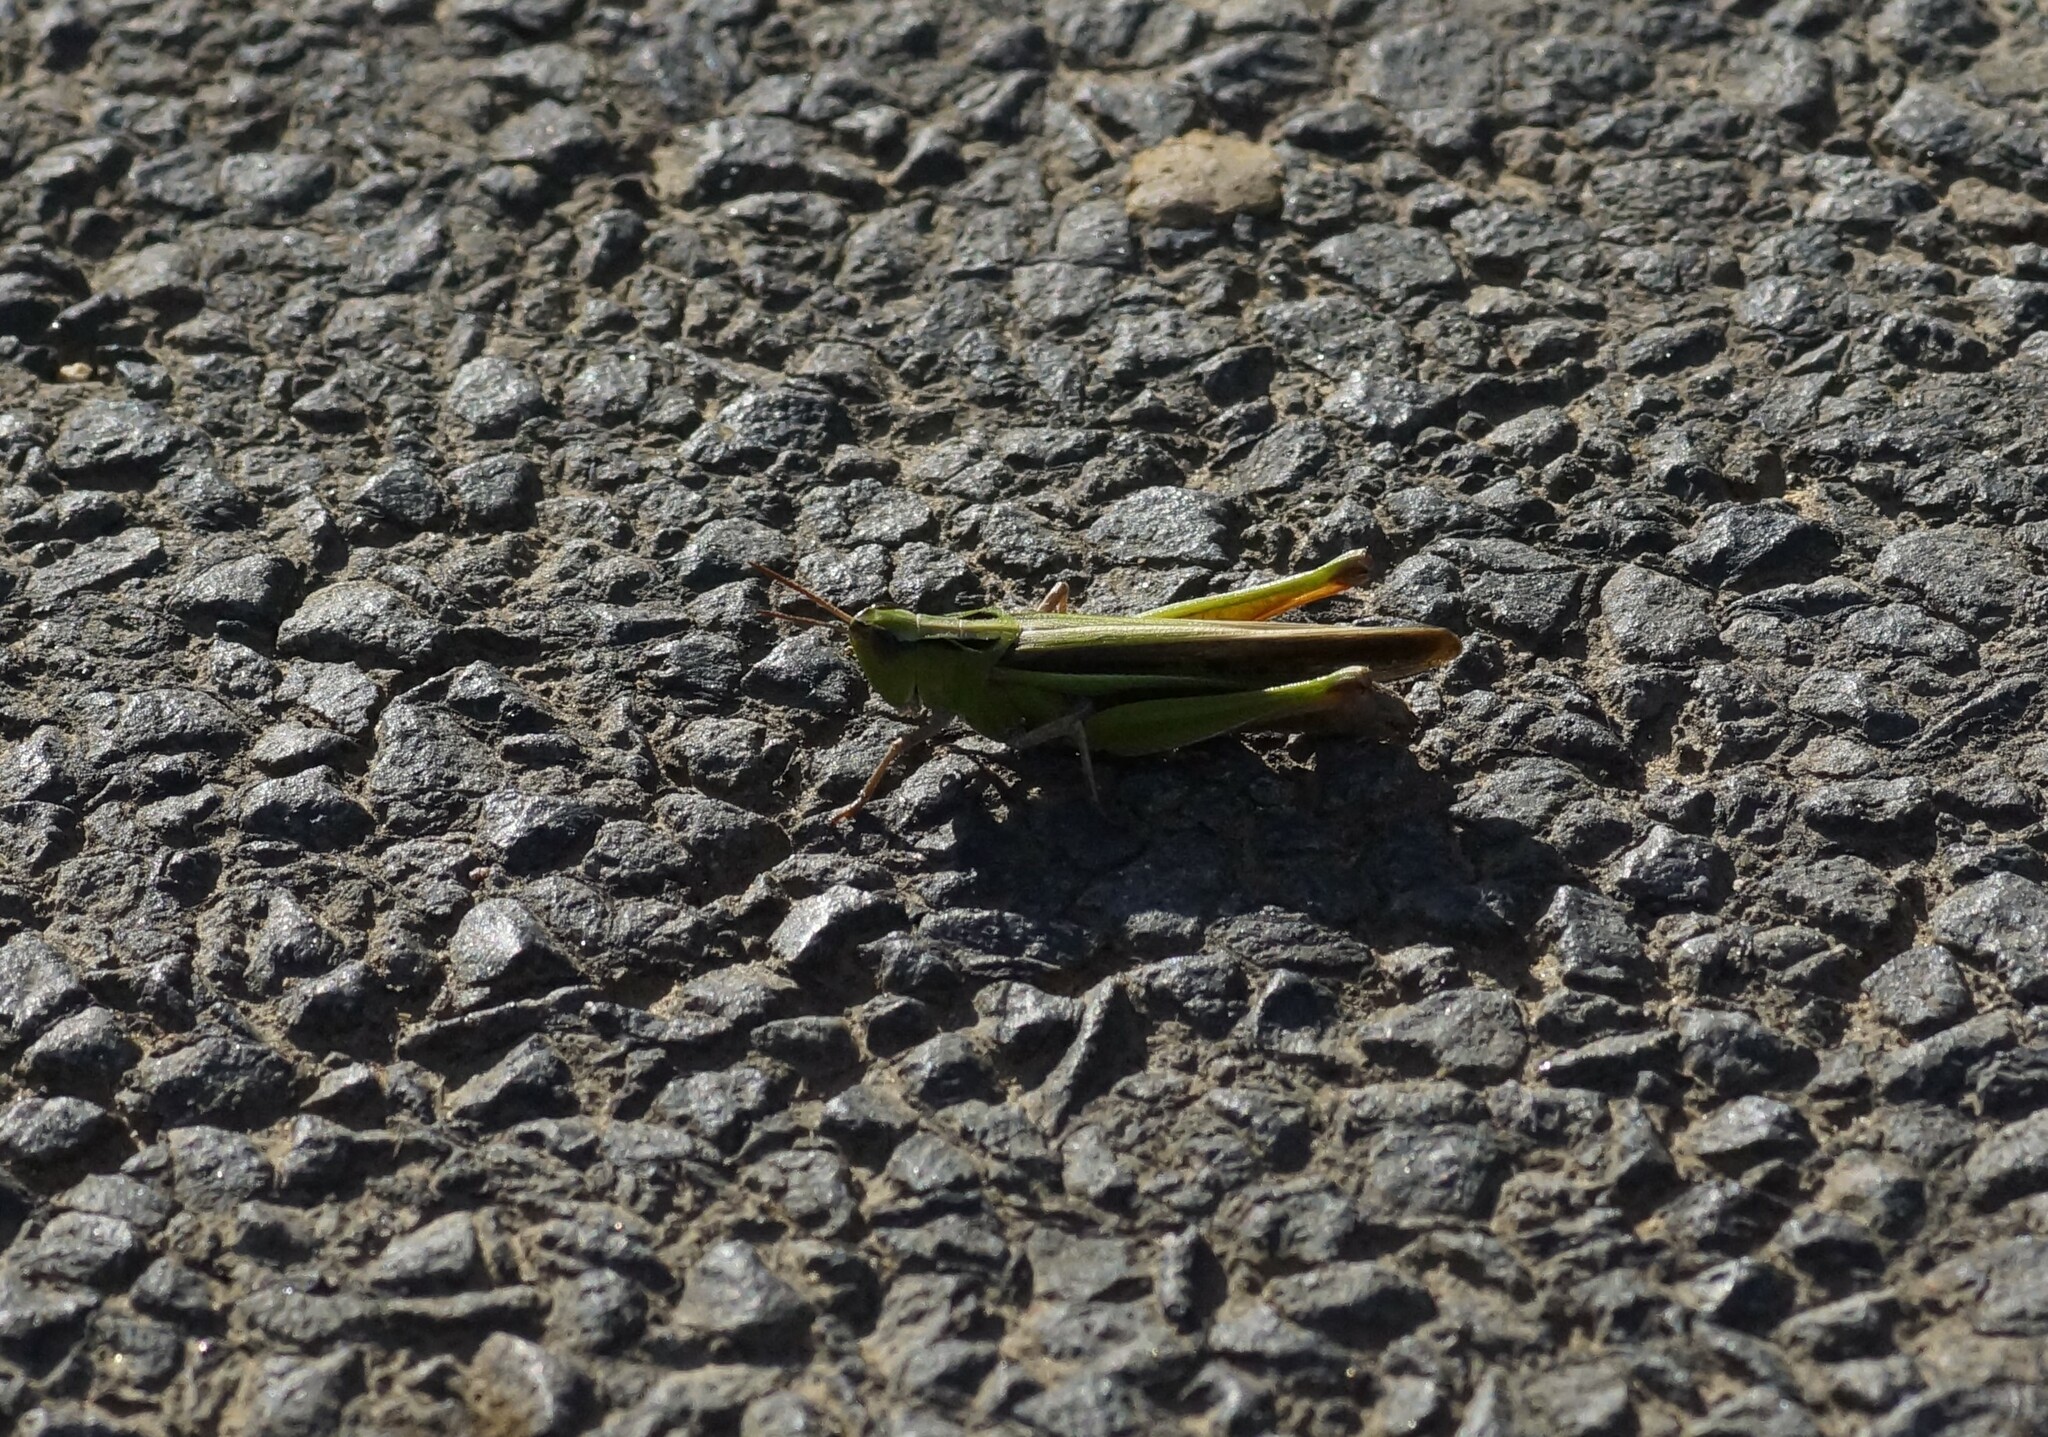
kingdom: Animalia
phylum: Arthropoda
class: Insecta
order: Orthoptera
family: Acrididae
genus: Schizobothrus
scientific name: Schizobothrus flavovittatus
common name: Disappearing grasshopper
